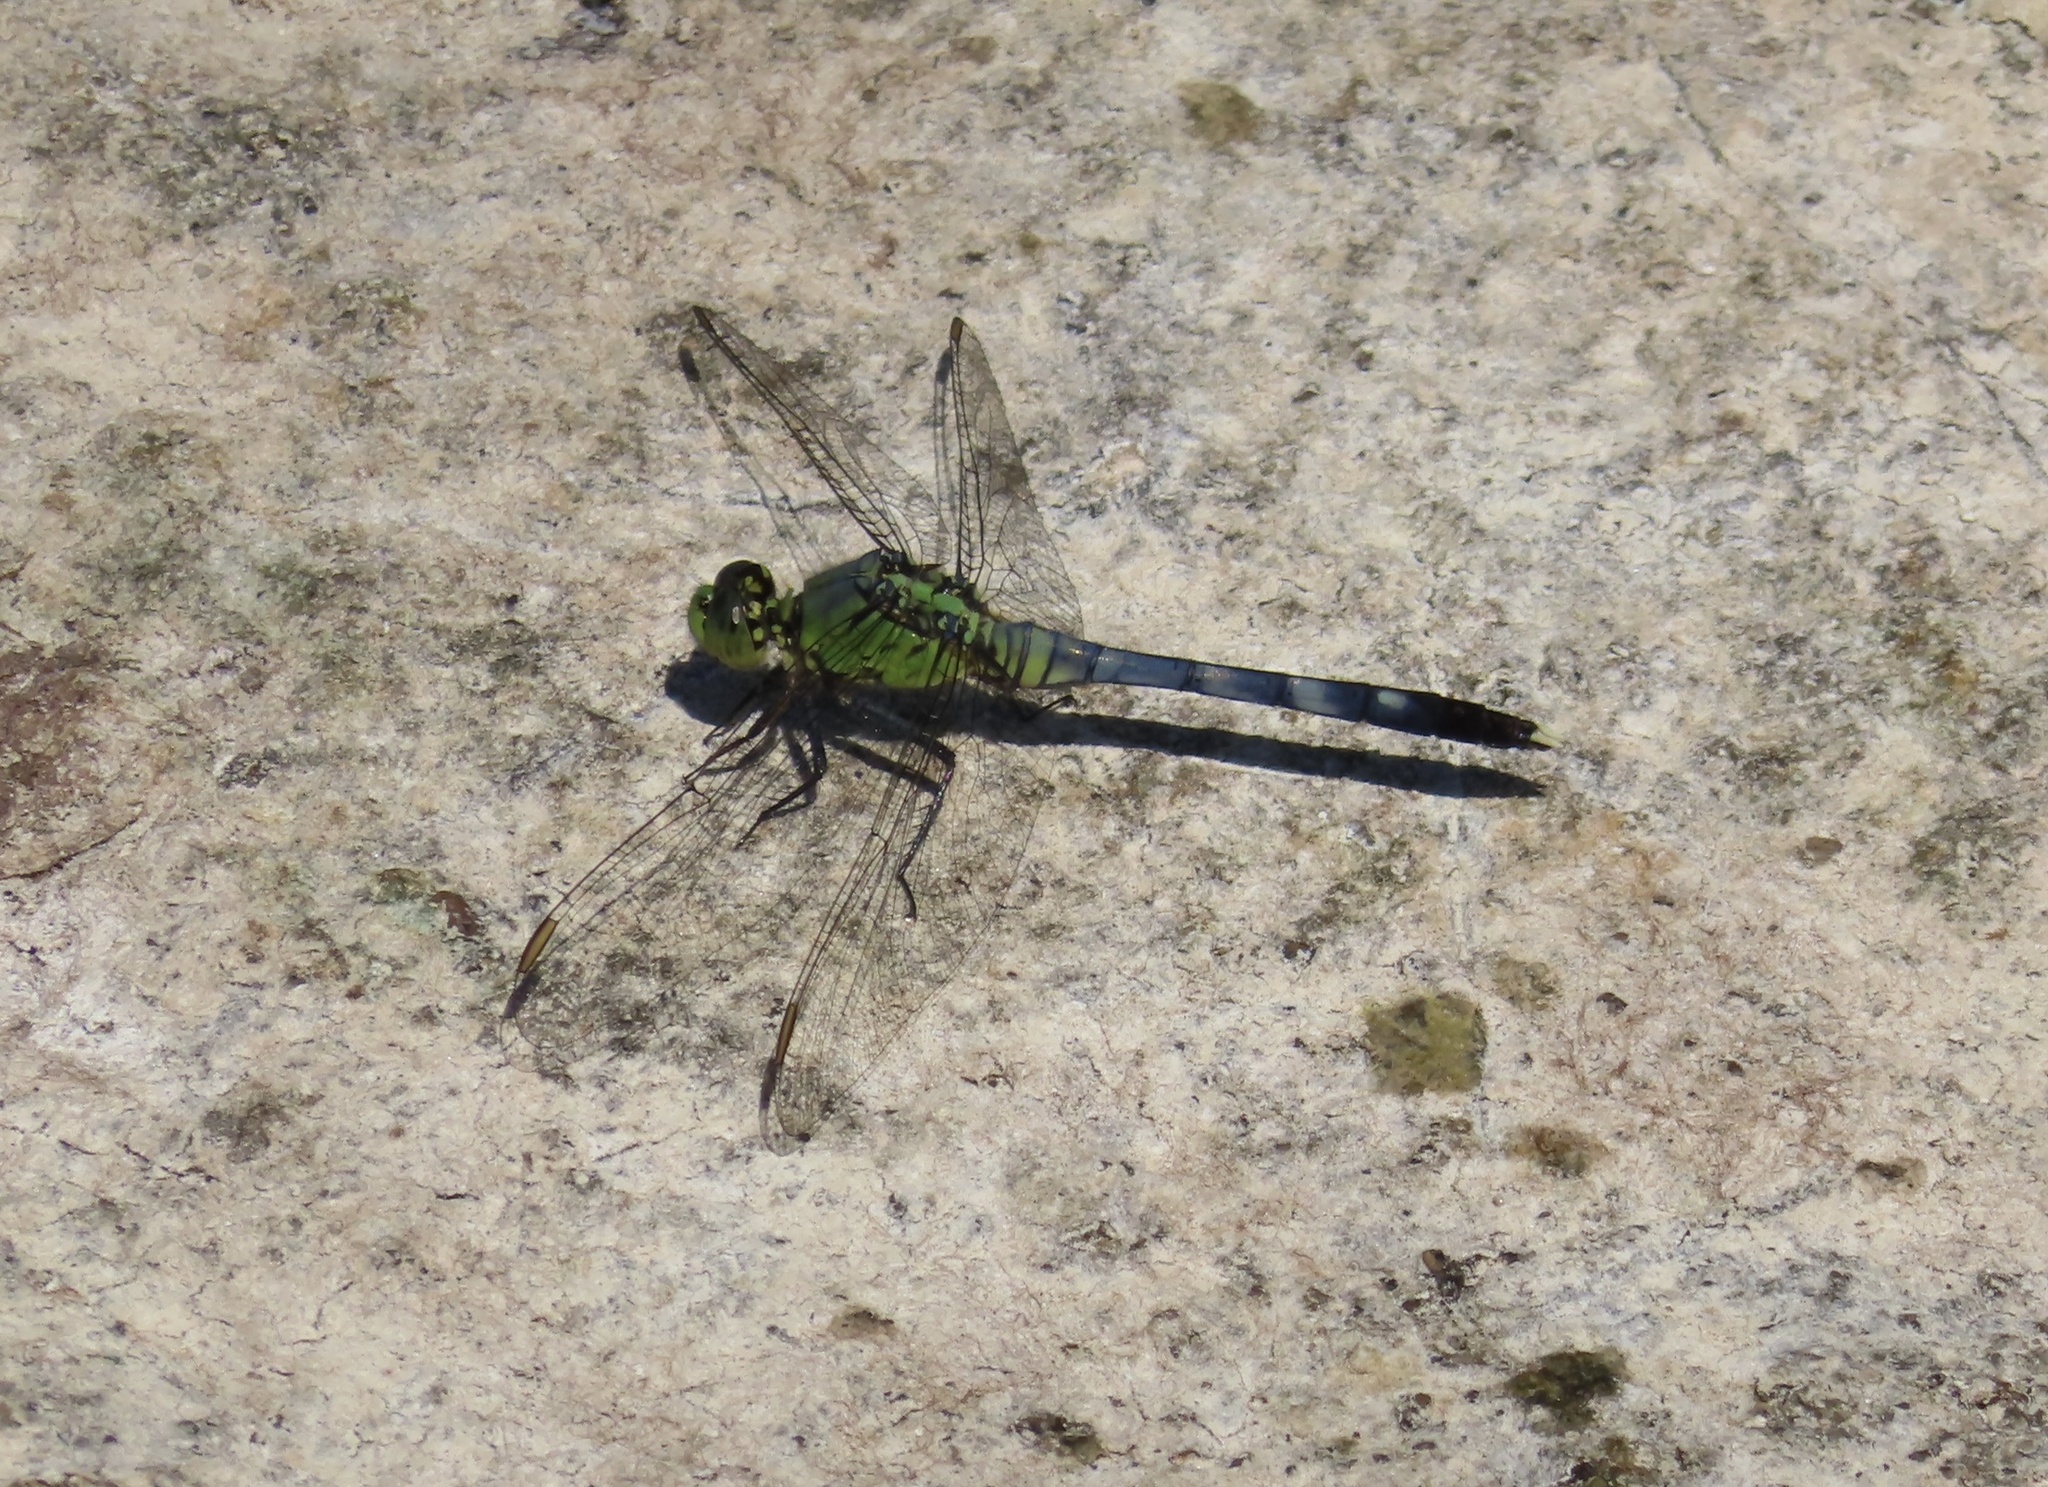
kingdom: Animalia
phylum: Arthropoda
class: Insecta
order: Odonata
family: Libellulidae
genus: Erythemis
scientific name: Erythemis simplicicollis
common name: Eastern pondhawk
